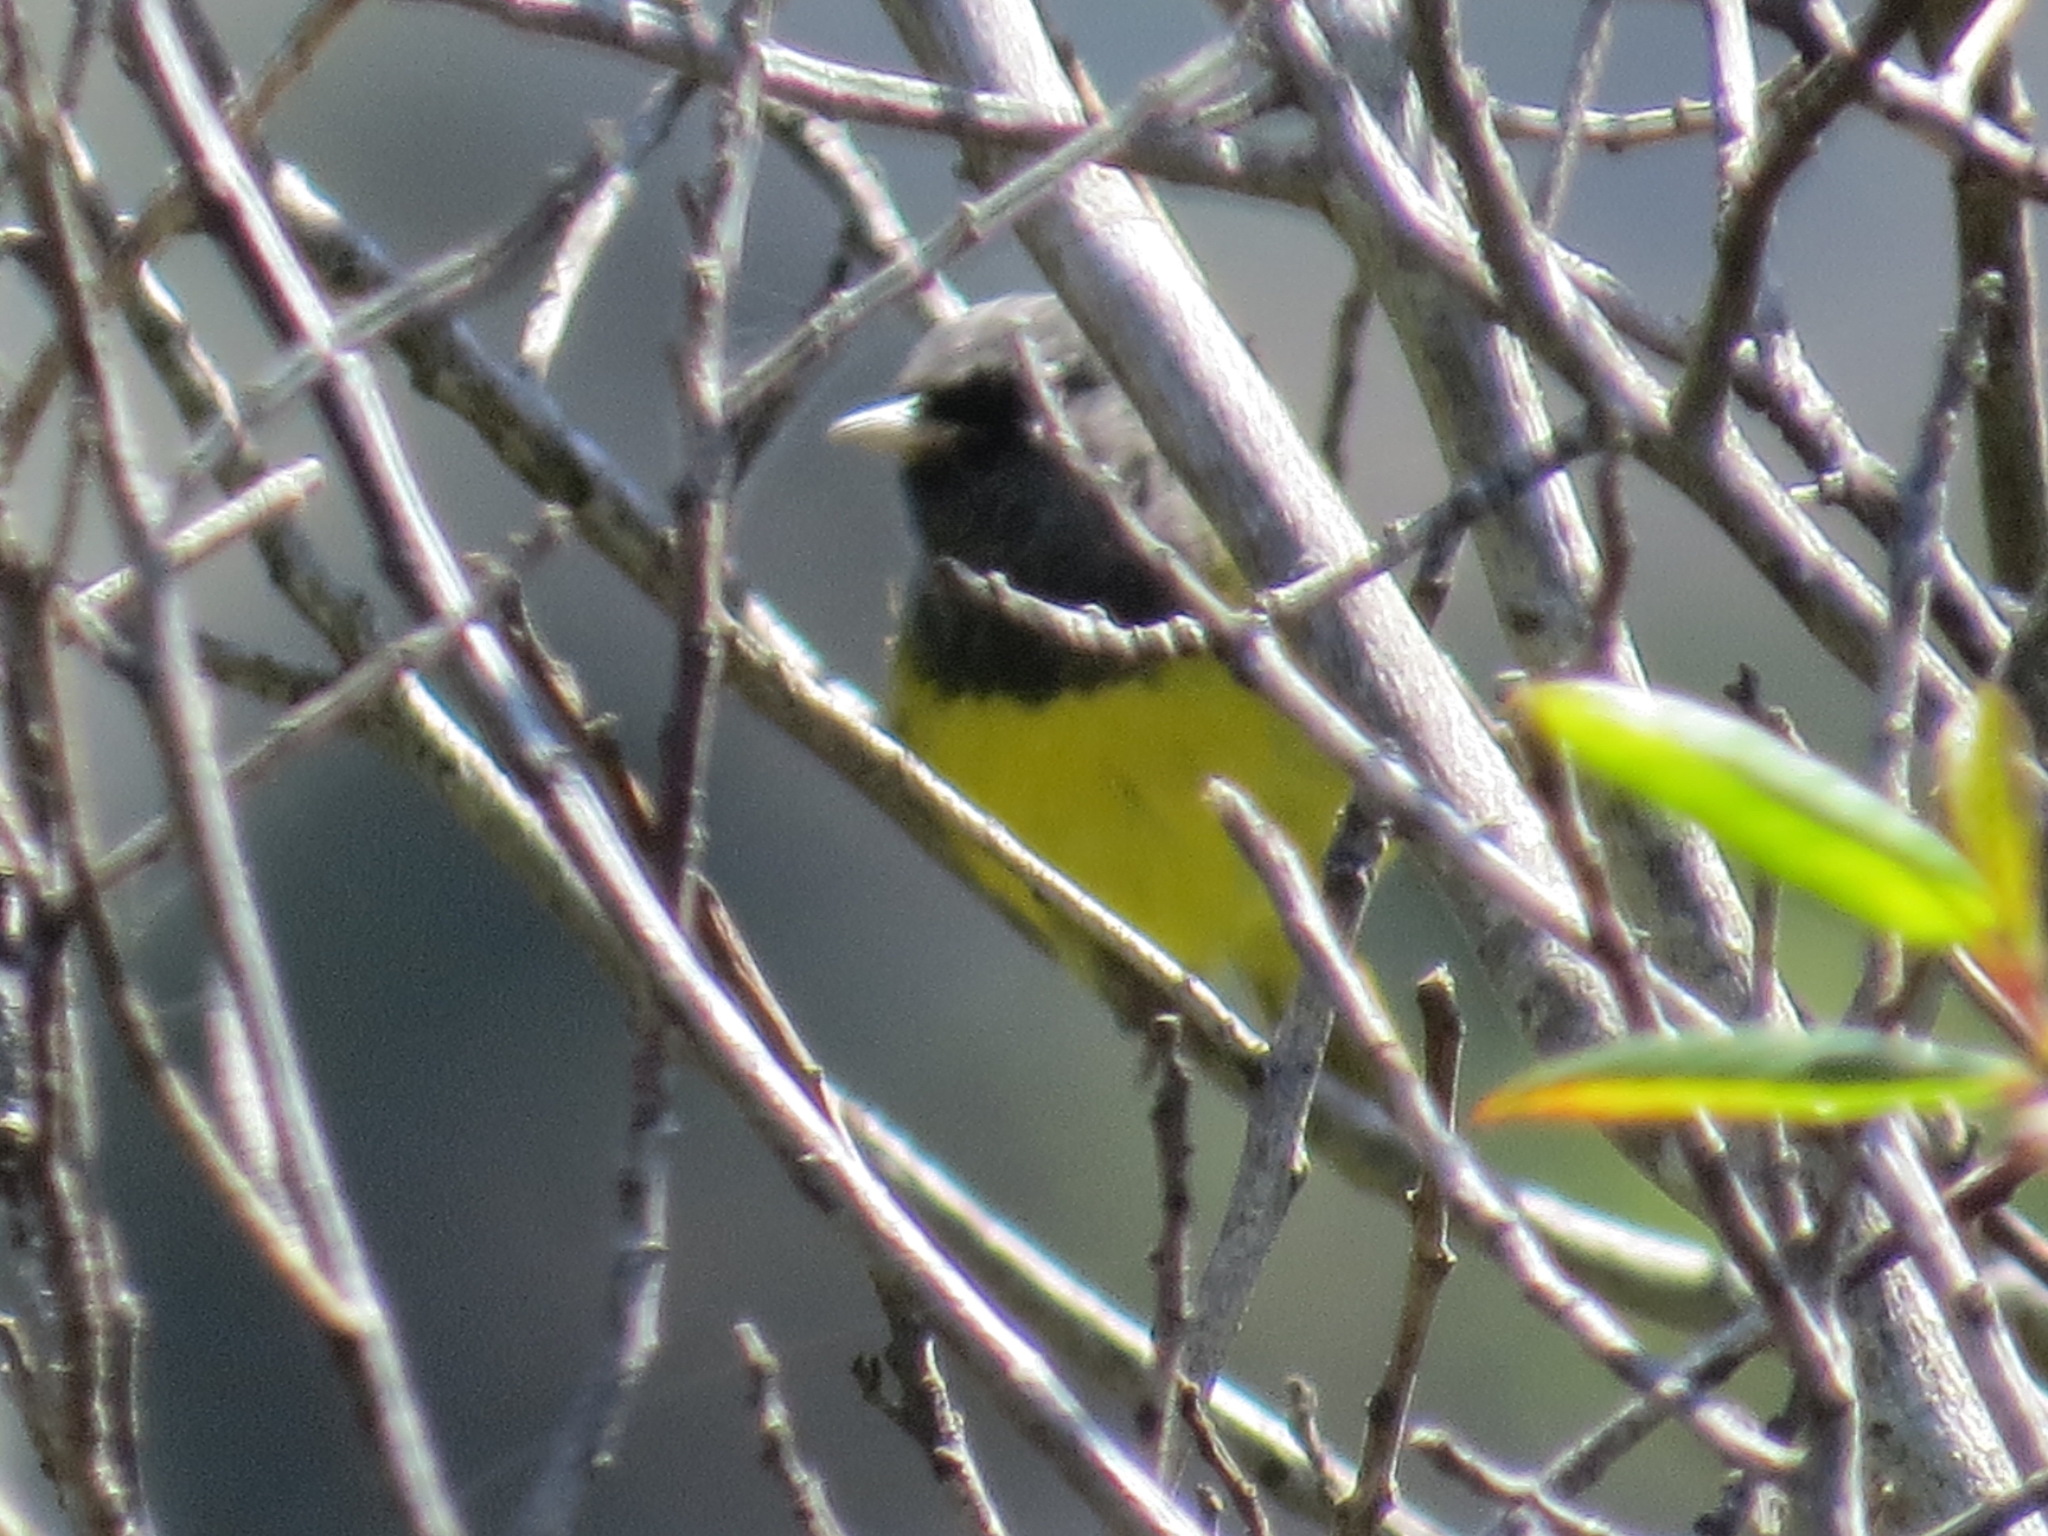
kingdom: Animalia
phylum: Chordata
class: Aves
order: Passeriformes
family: Parulidae
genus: Geothlypis
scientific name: Geothlypis tolmiei
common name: Macgillivray's warbler
